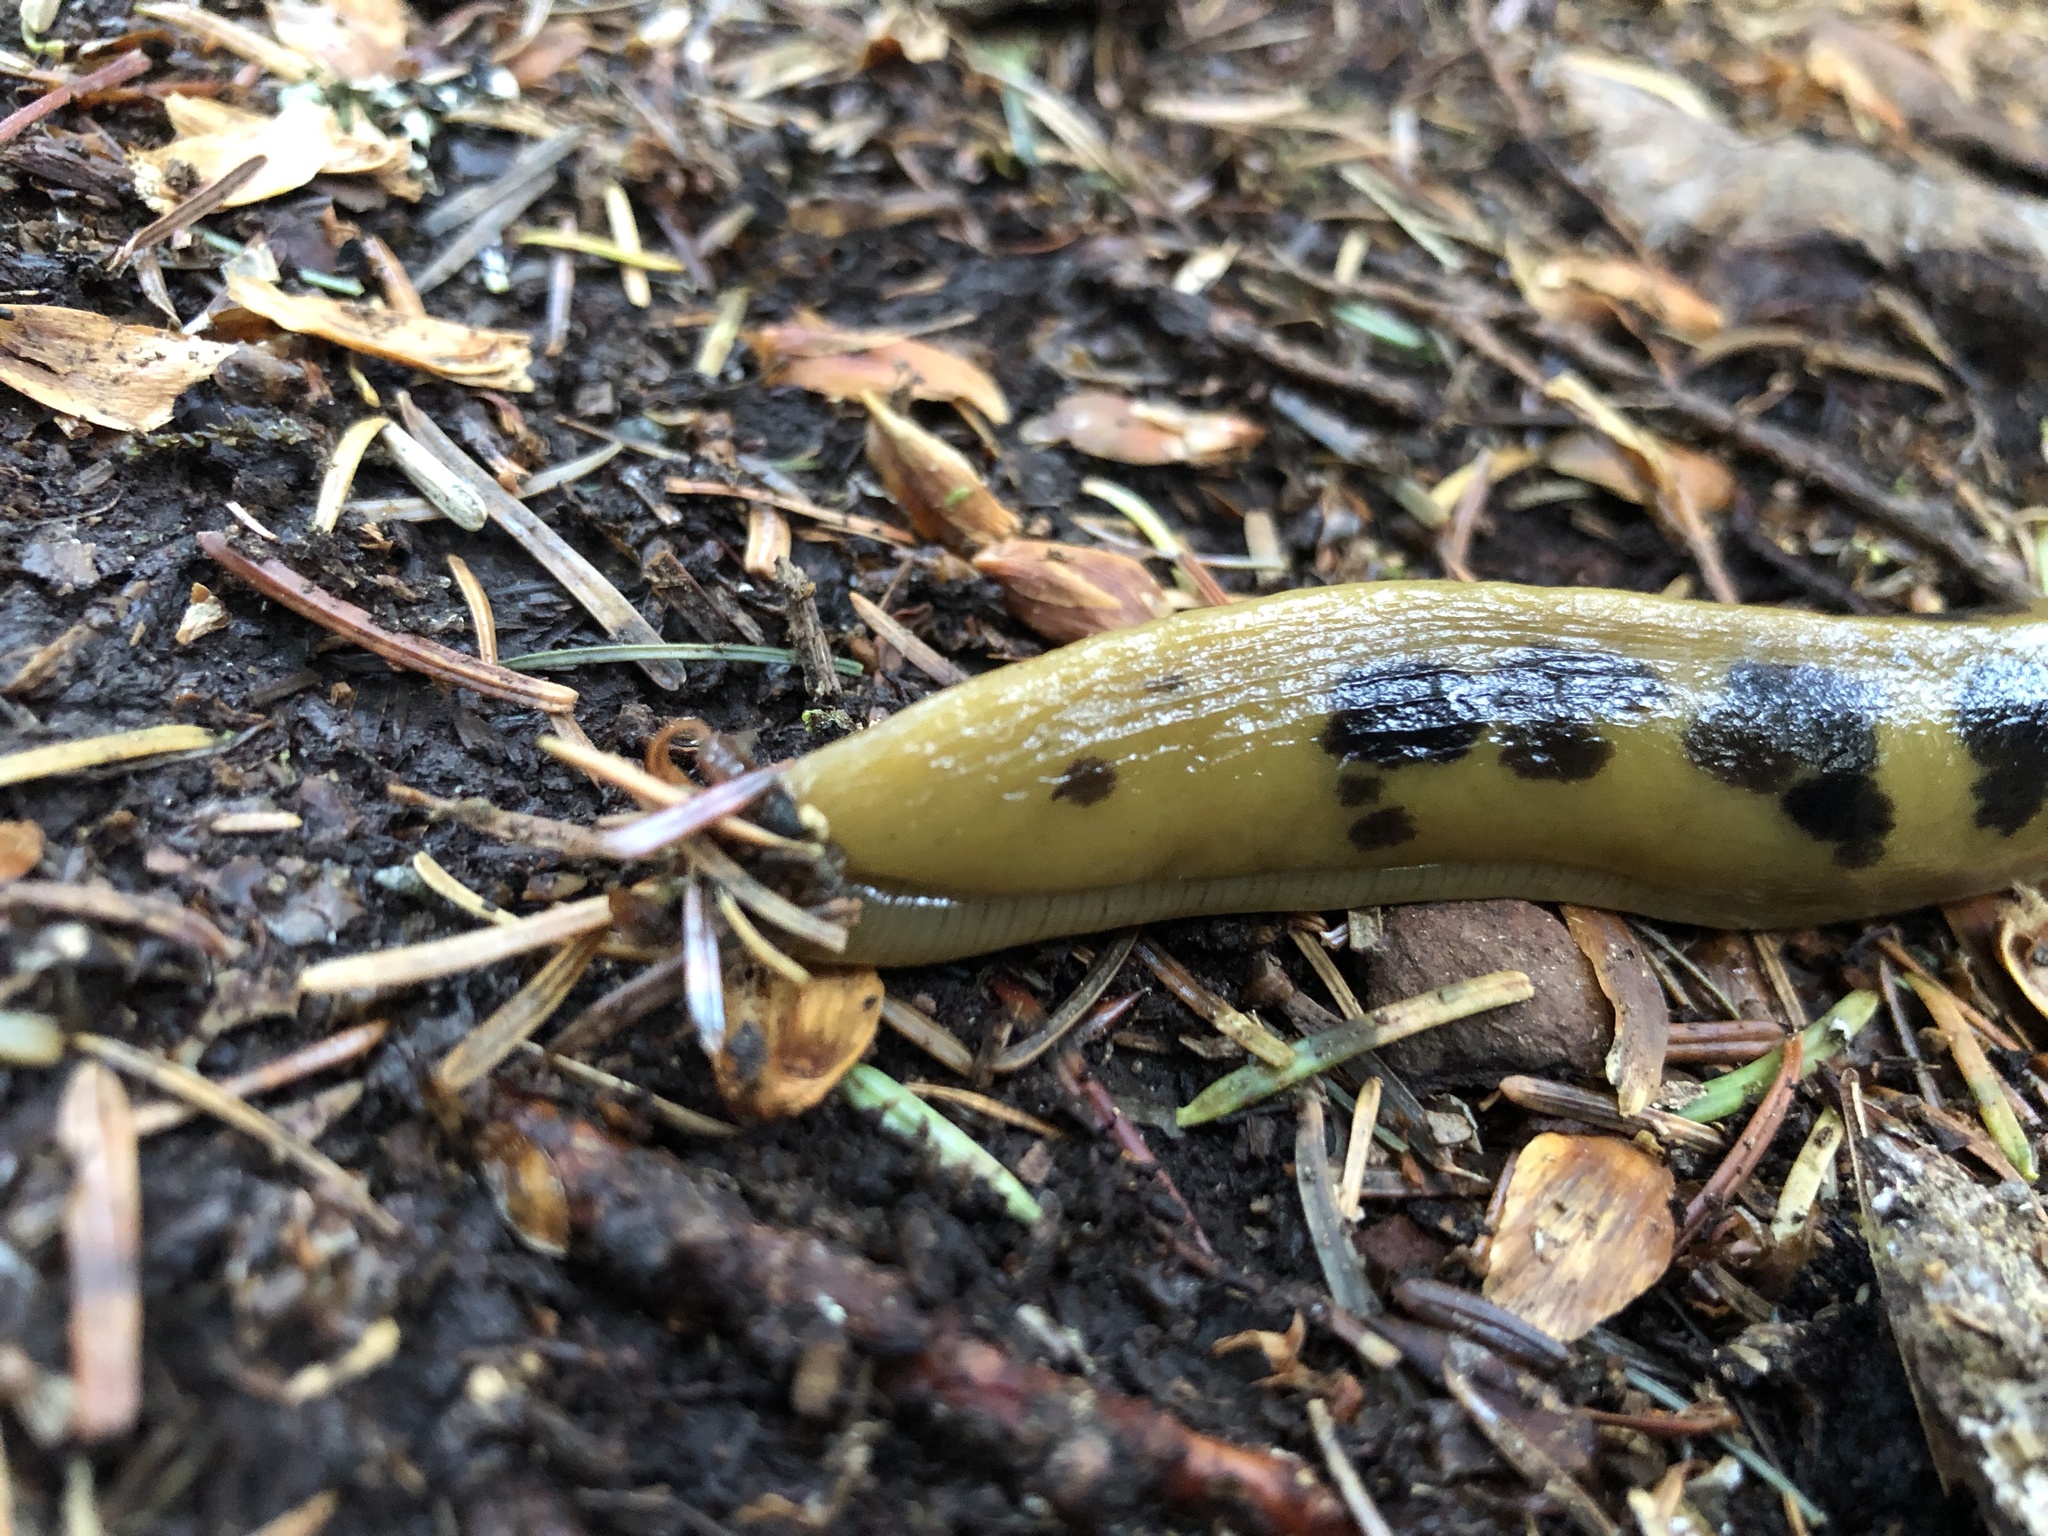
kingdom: Animalia
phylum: Mollusca
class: Gastropoda
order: Stylommatophora
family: Ariolimacidae
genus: Ariolimax
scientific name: Ariolimax columbianus
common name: Pacific banana slug
